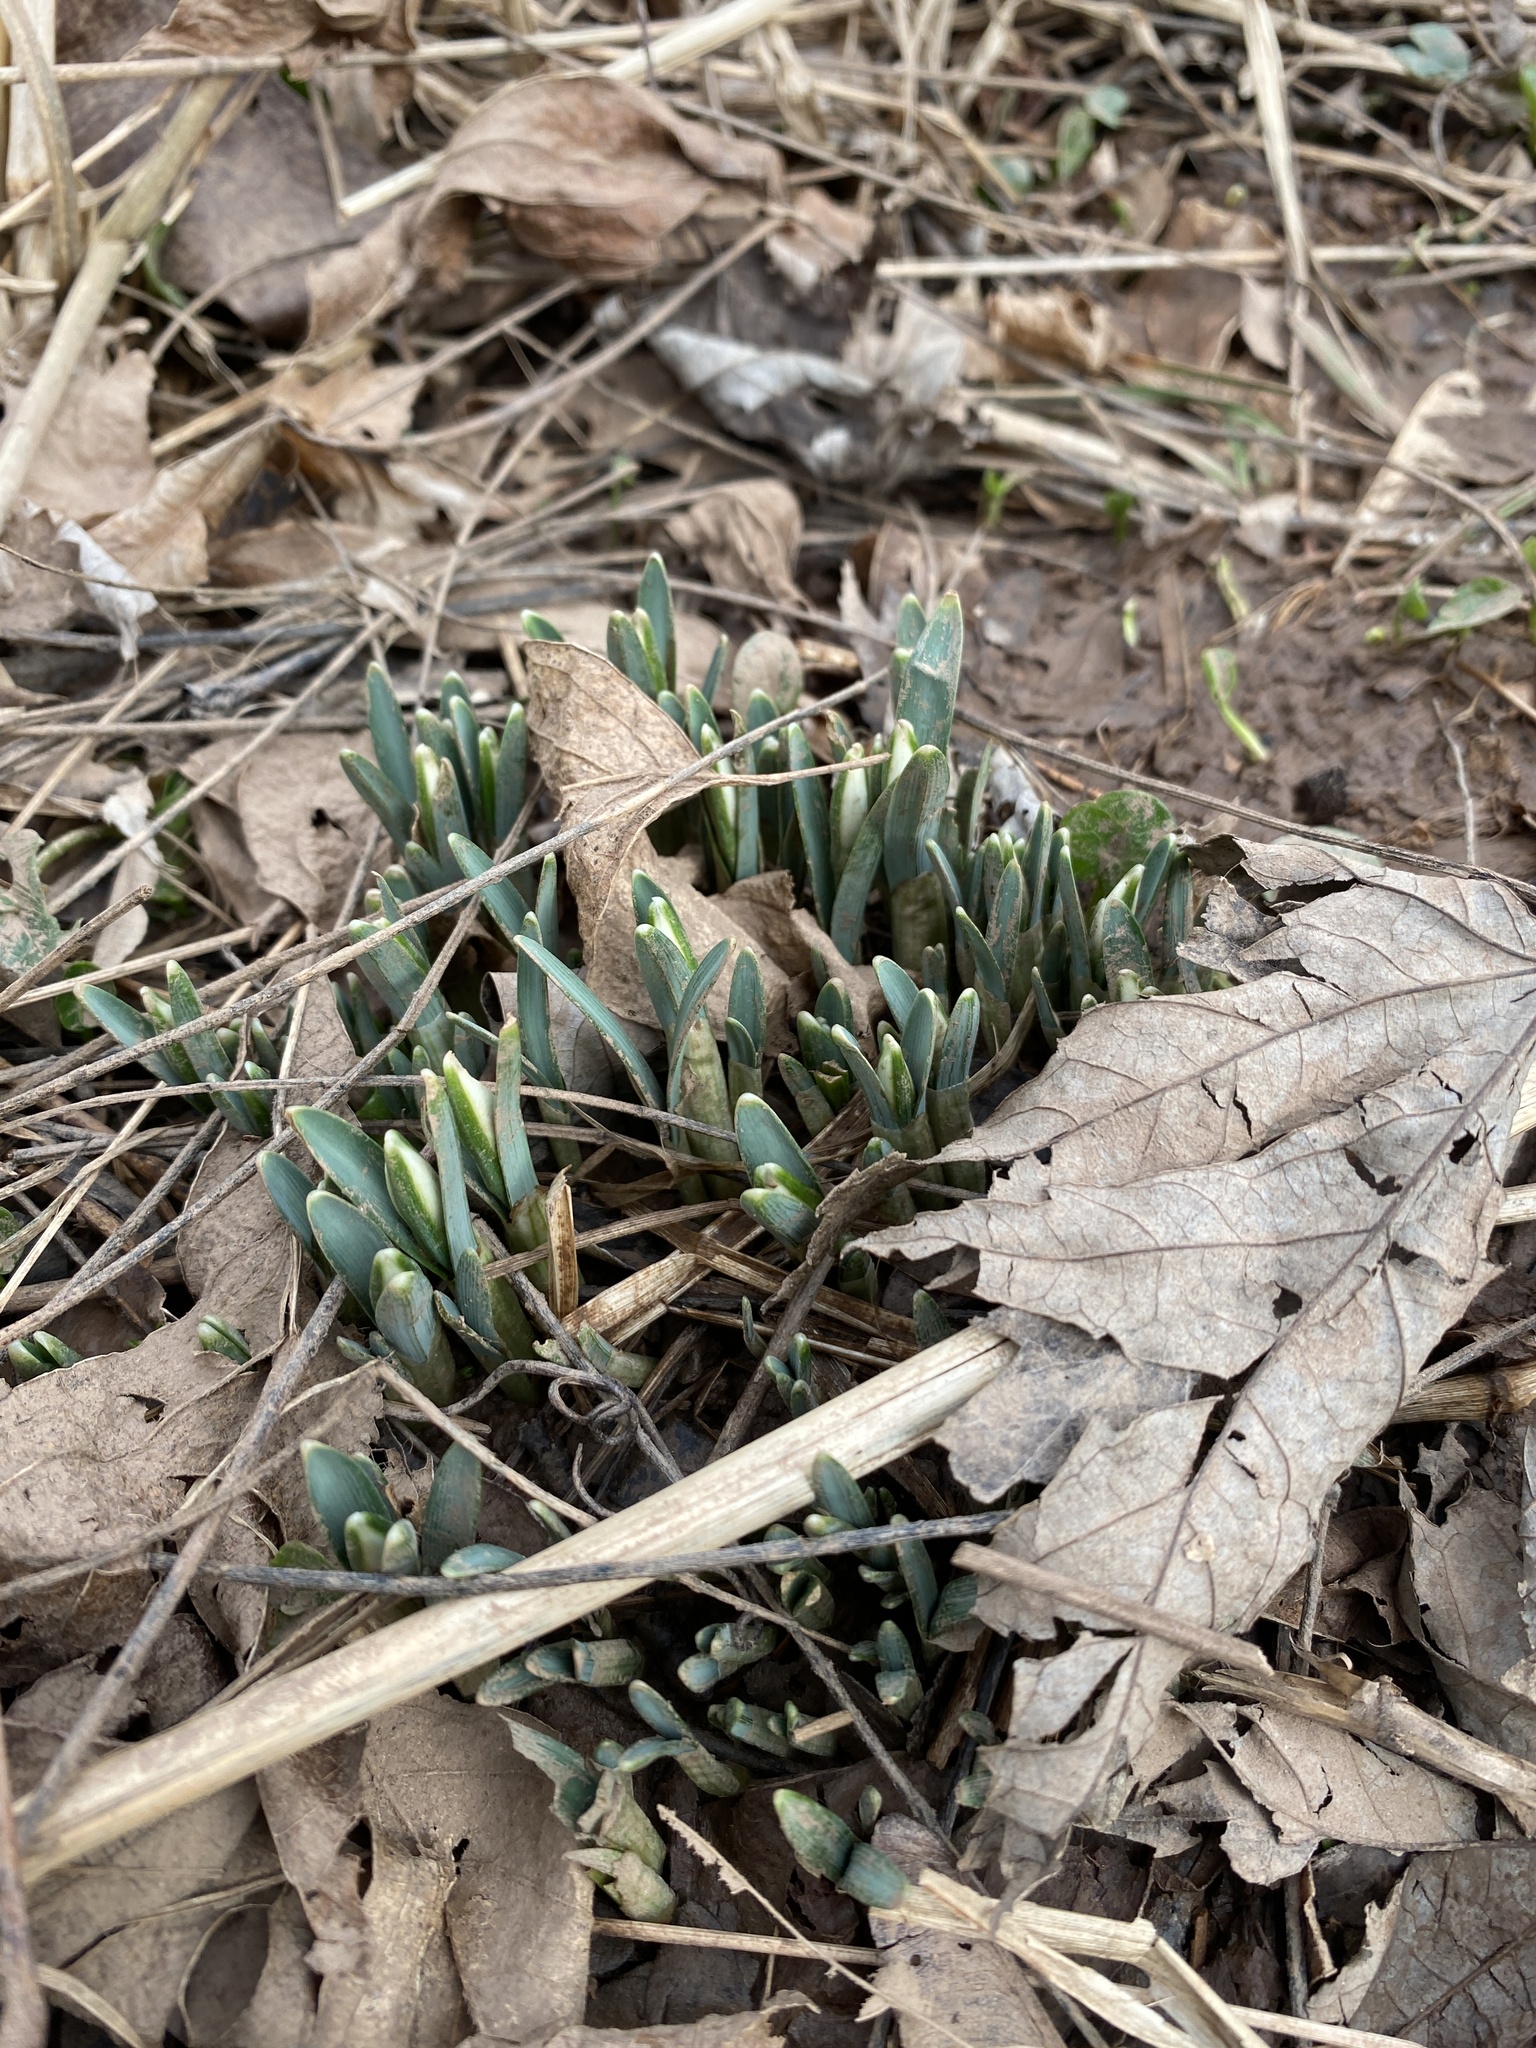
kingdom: Plantae
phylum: Tracheophyta
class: Liliopsida
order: Asparagales
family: Amaryllidaceae
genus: Galanthus
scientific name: Galanthus nivalis
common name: Snowdrop
